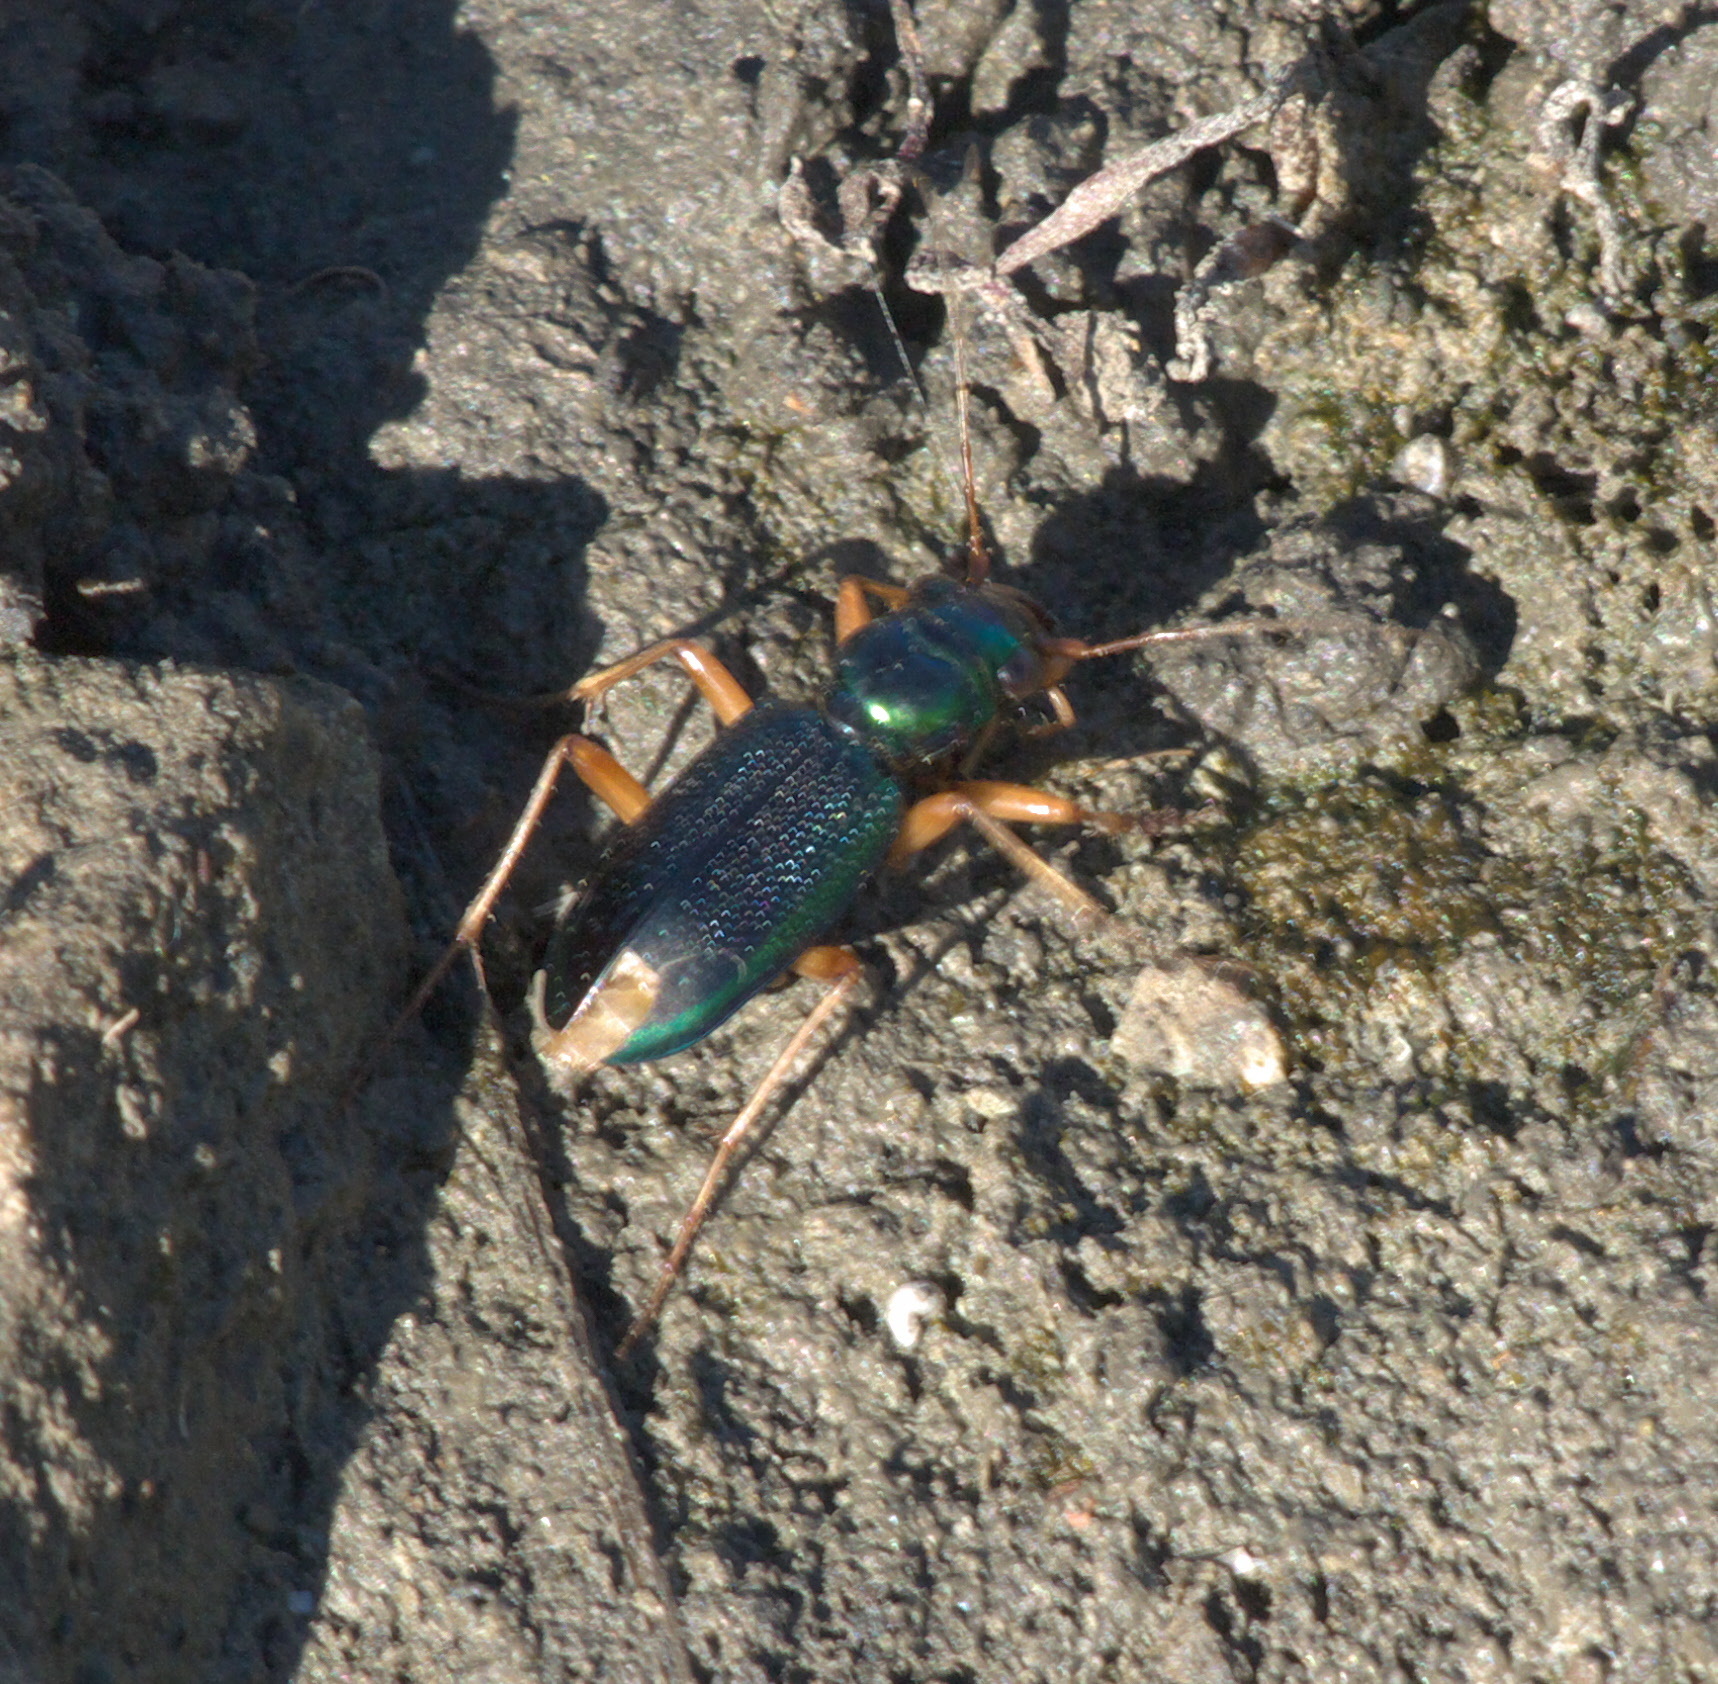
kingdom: Animalia
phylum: Arthropoda
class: Insecta
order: Coleoptera
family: Carabidae
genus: Tetracha
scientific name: Tetracha virginica
